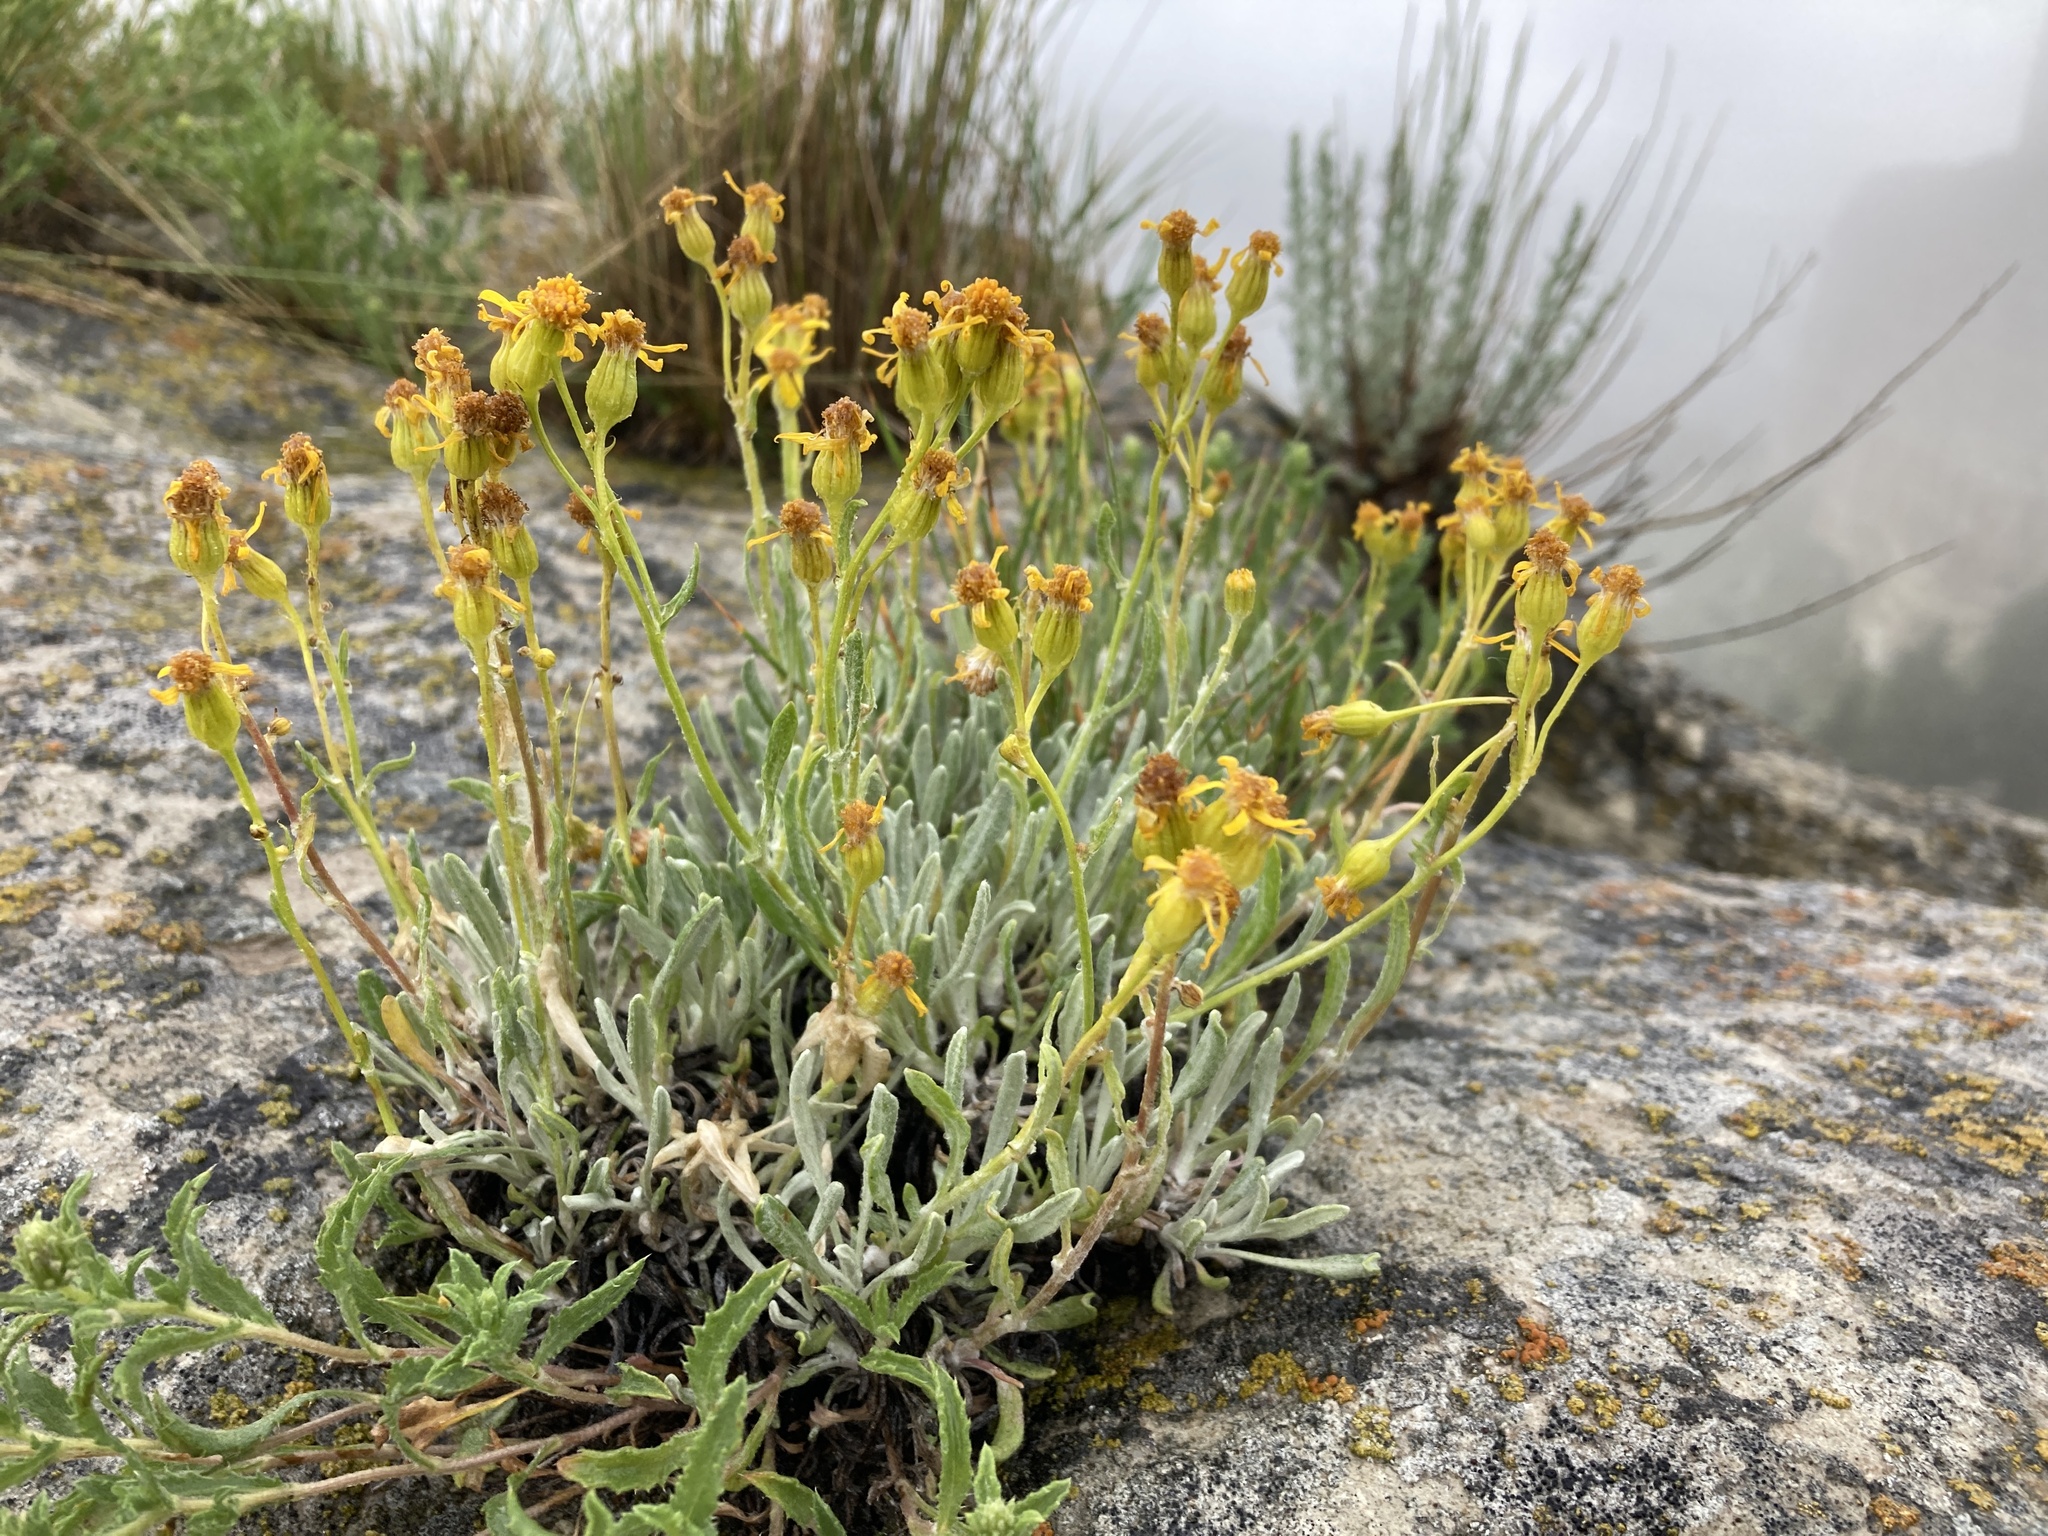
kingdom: Plantae
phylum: Tracheophyta
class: Magnoliopsida
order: Asterales
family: Asteraceae
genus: Packera
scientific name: Packera cana
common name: Woolly groundsel
